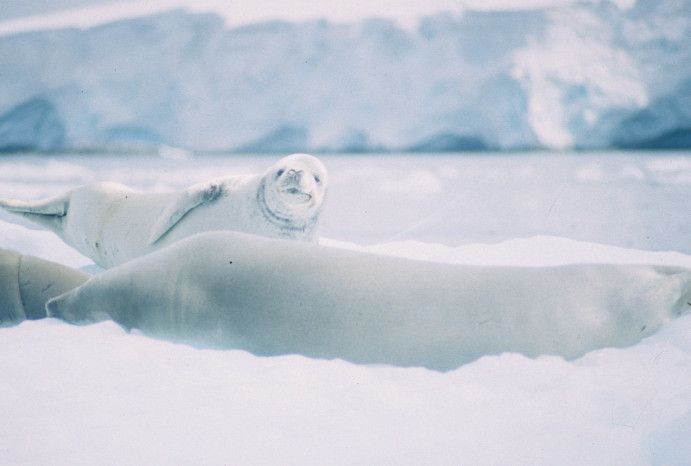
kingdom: Animalia
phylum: Chordata
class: Mammalia
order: Carnivora
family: Phocidae
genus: Lobodon
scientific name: Lobodon carcinophaga
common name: Crabeater seal
